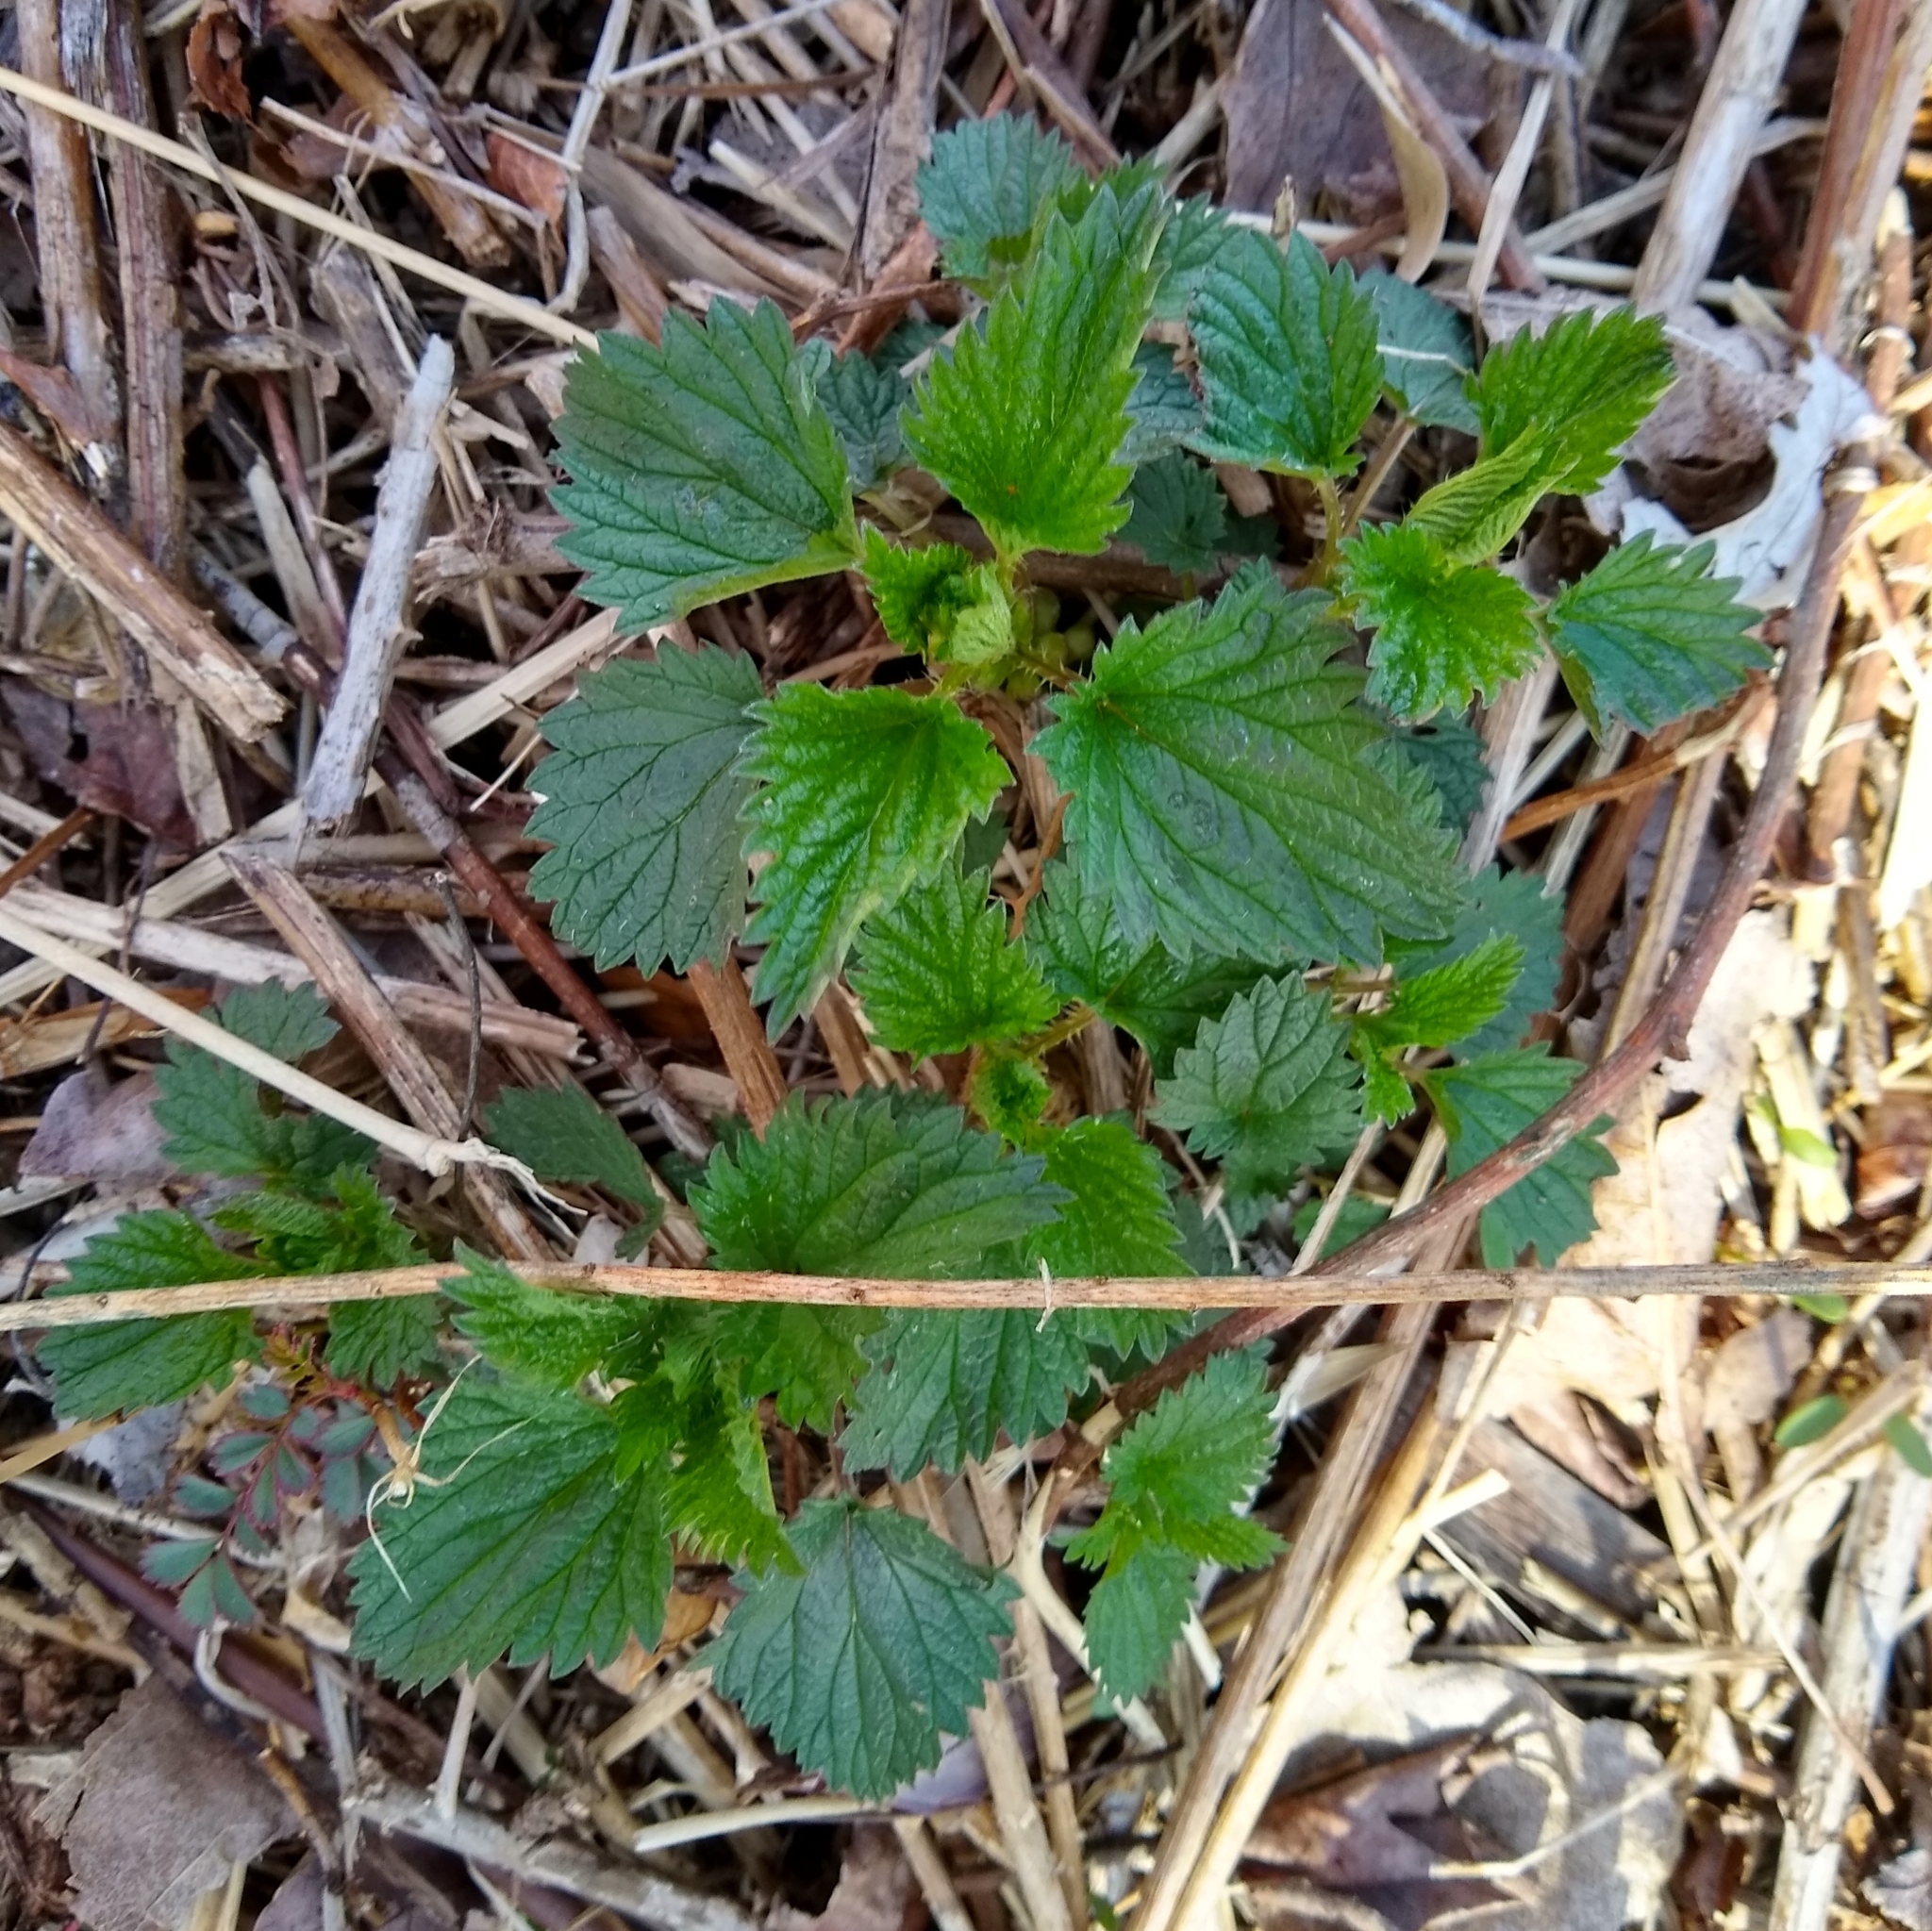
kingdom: Plantae
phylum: Tracheophyta
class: Magnoliopsida
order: Rosales
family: Urticaceae
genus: Urtica
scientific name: Urtica dioica
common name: Common nettle
